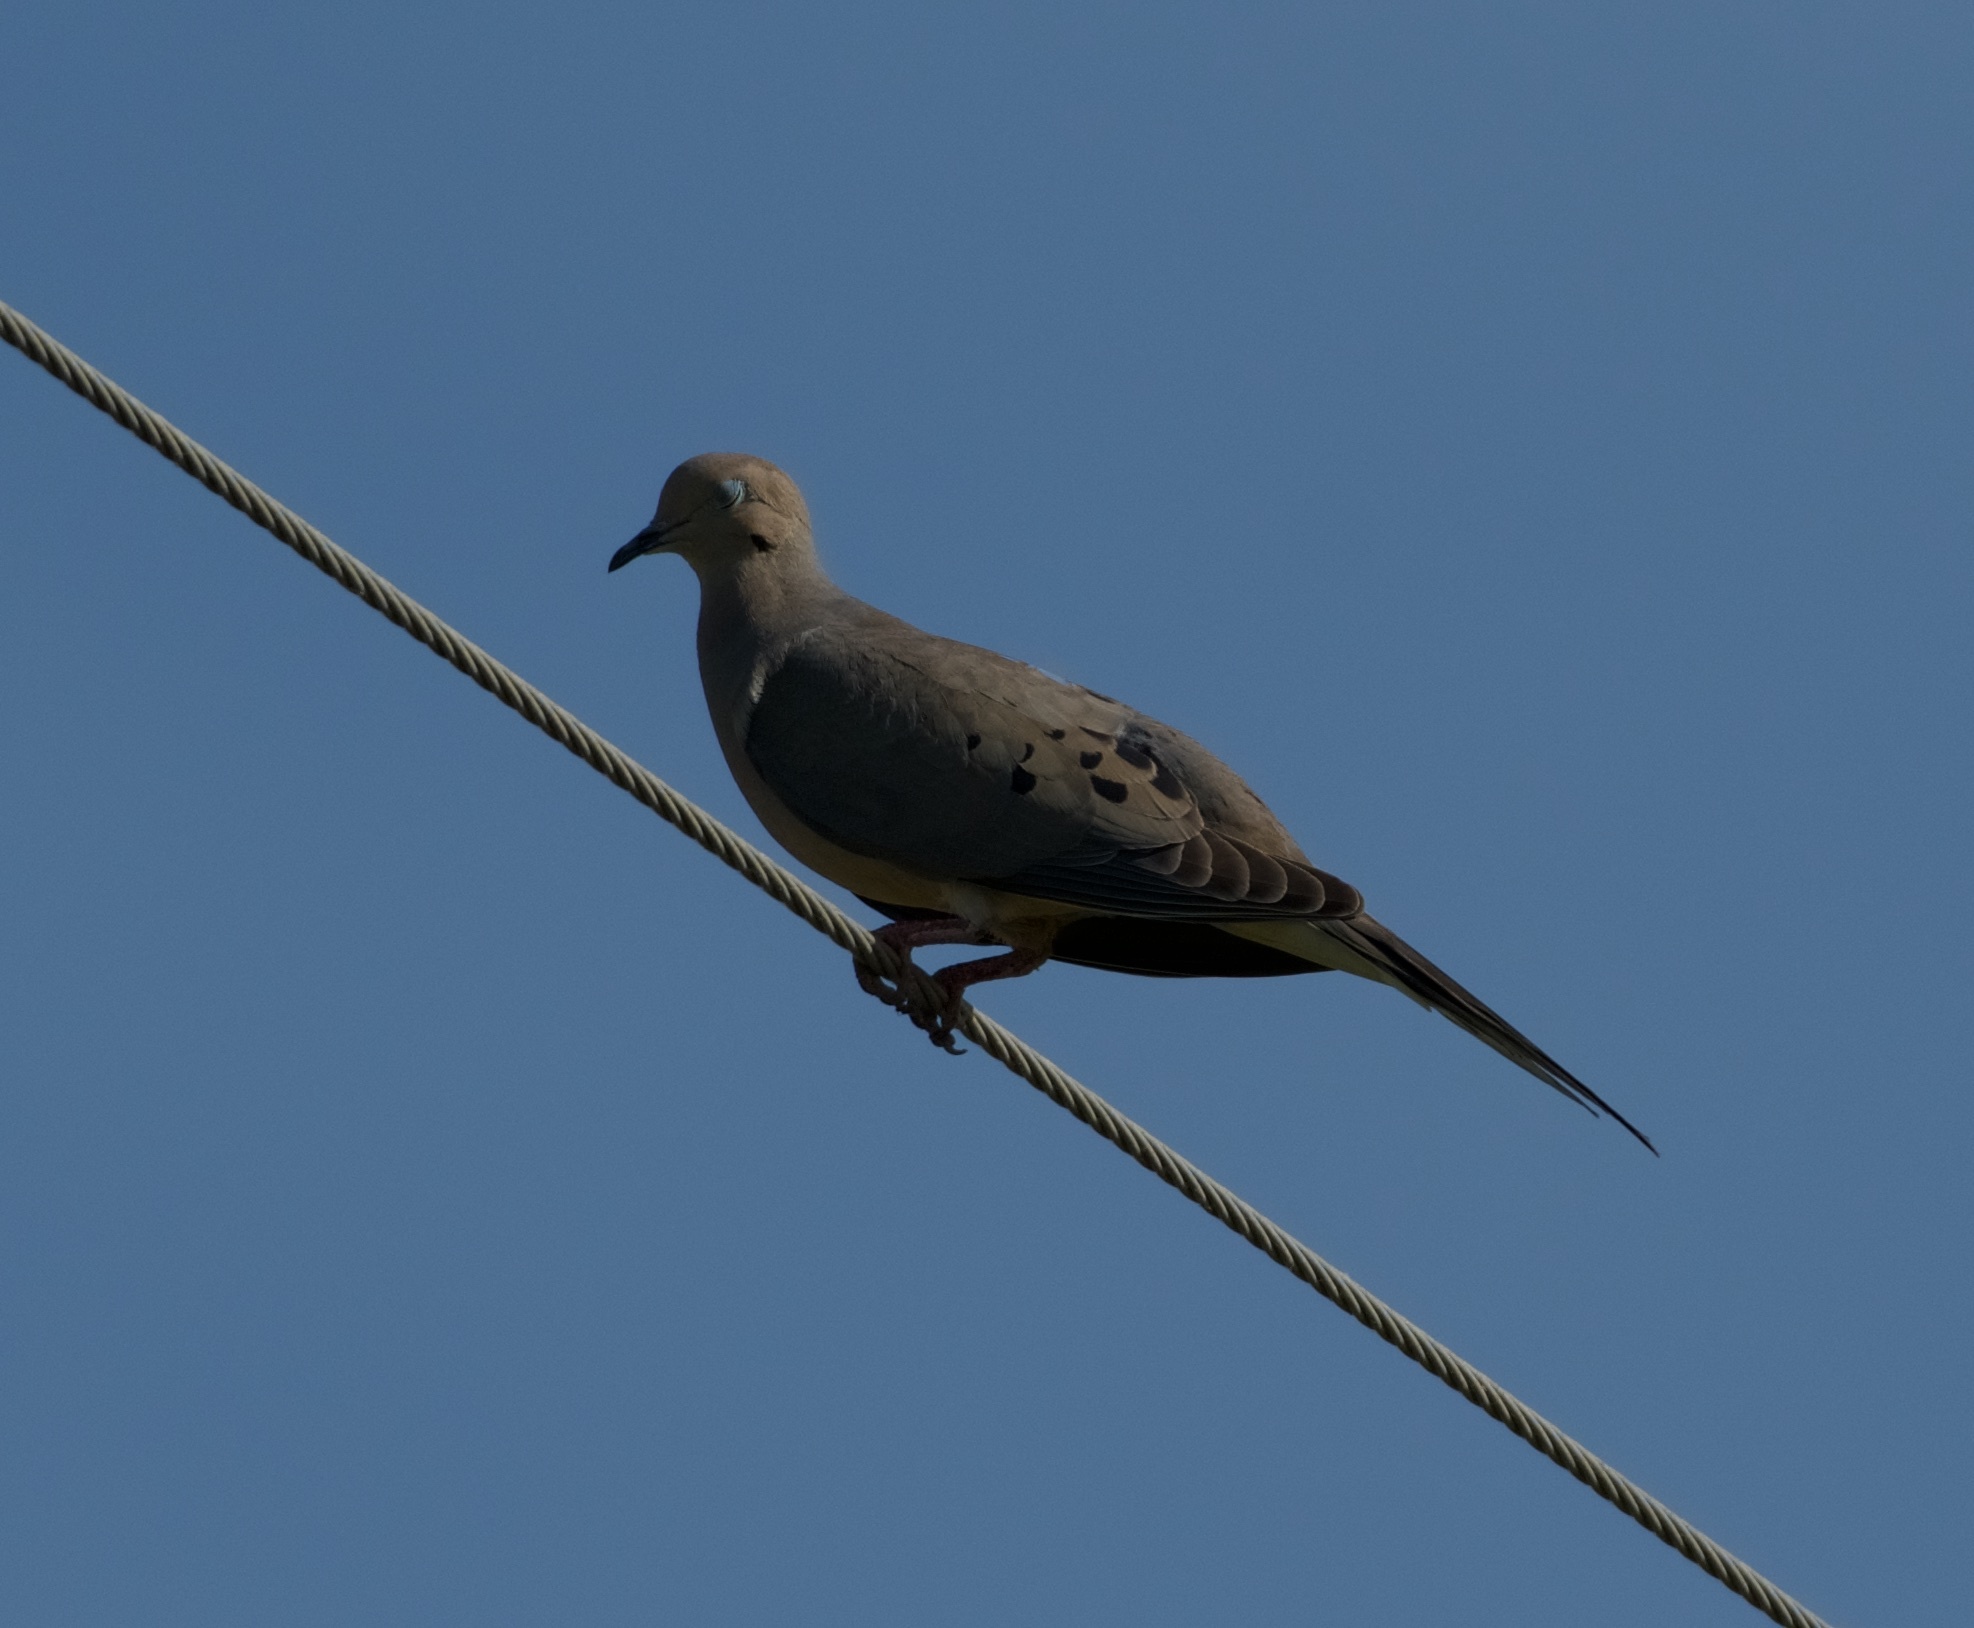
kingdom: Animalia
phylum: Chordata
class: Aves
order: Columbiformes
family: Columbidae
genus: Zenaida
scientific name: Zenaida macroura
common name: Mourning dove
